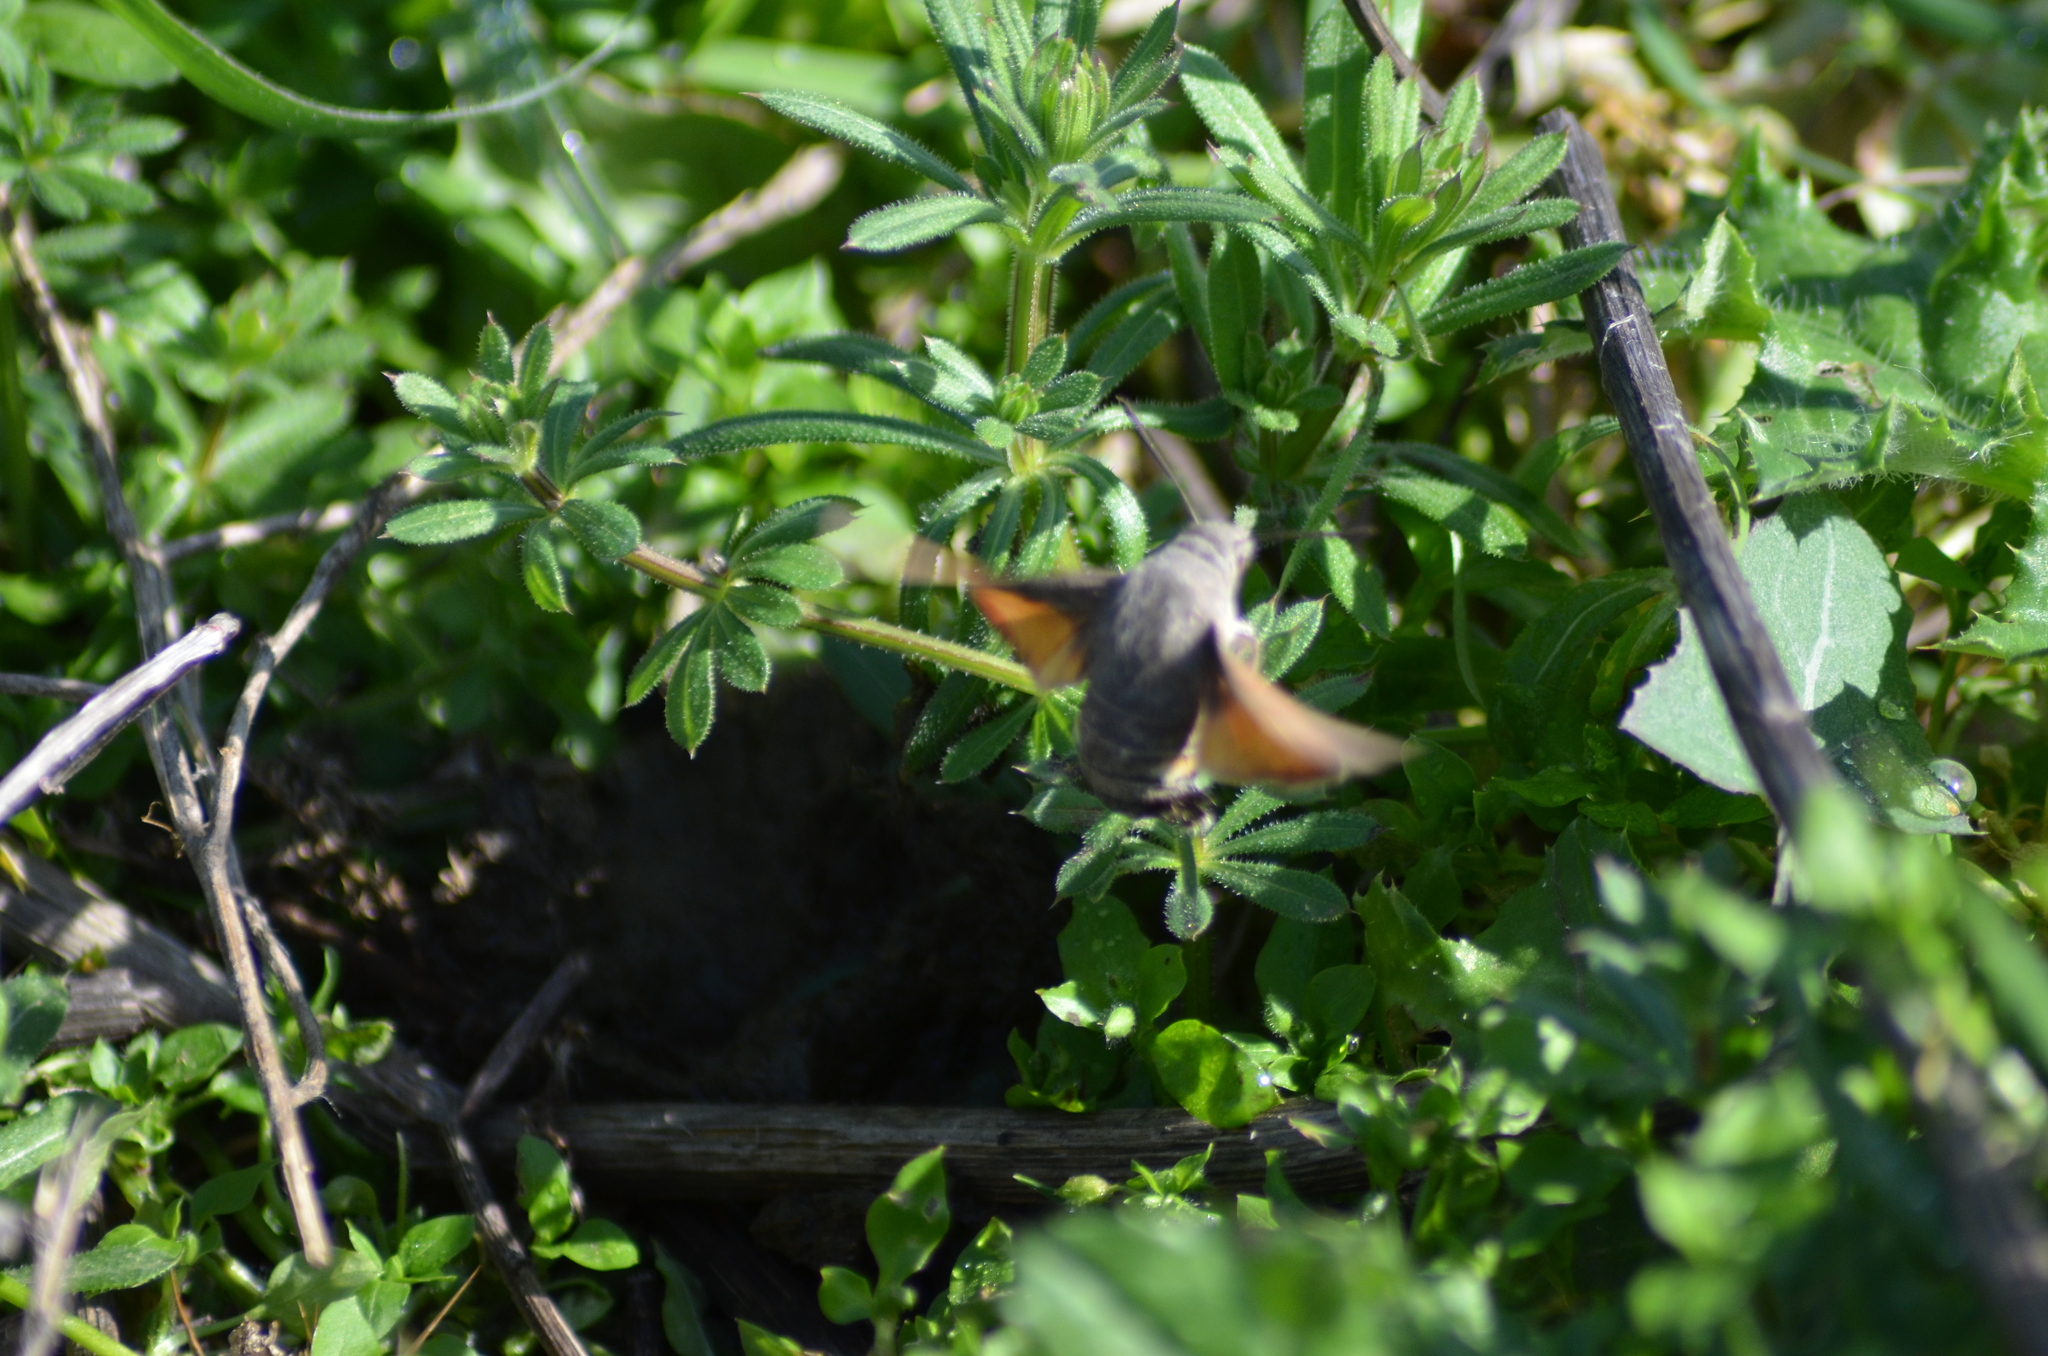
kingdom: Animalia
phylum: Arthropoda
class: Insecta
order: Lepidoptera
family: Sphingidae
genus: Macroglossum
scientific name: Macroglossum stellatarum
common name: Humming-bird hawk-moth
